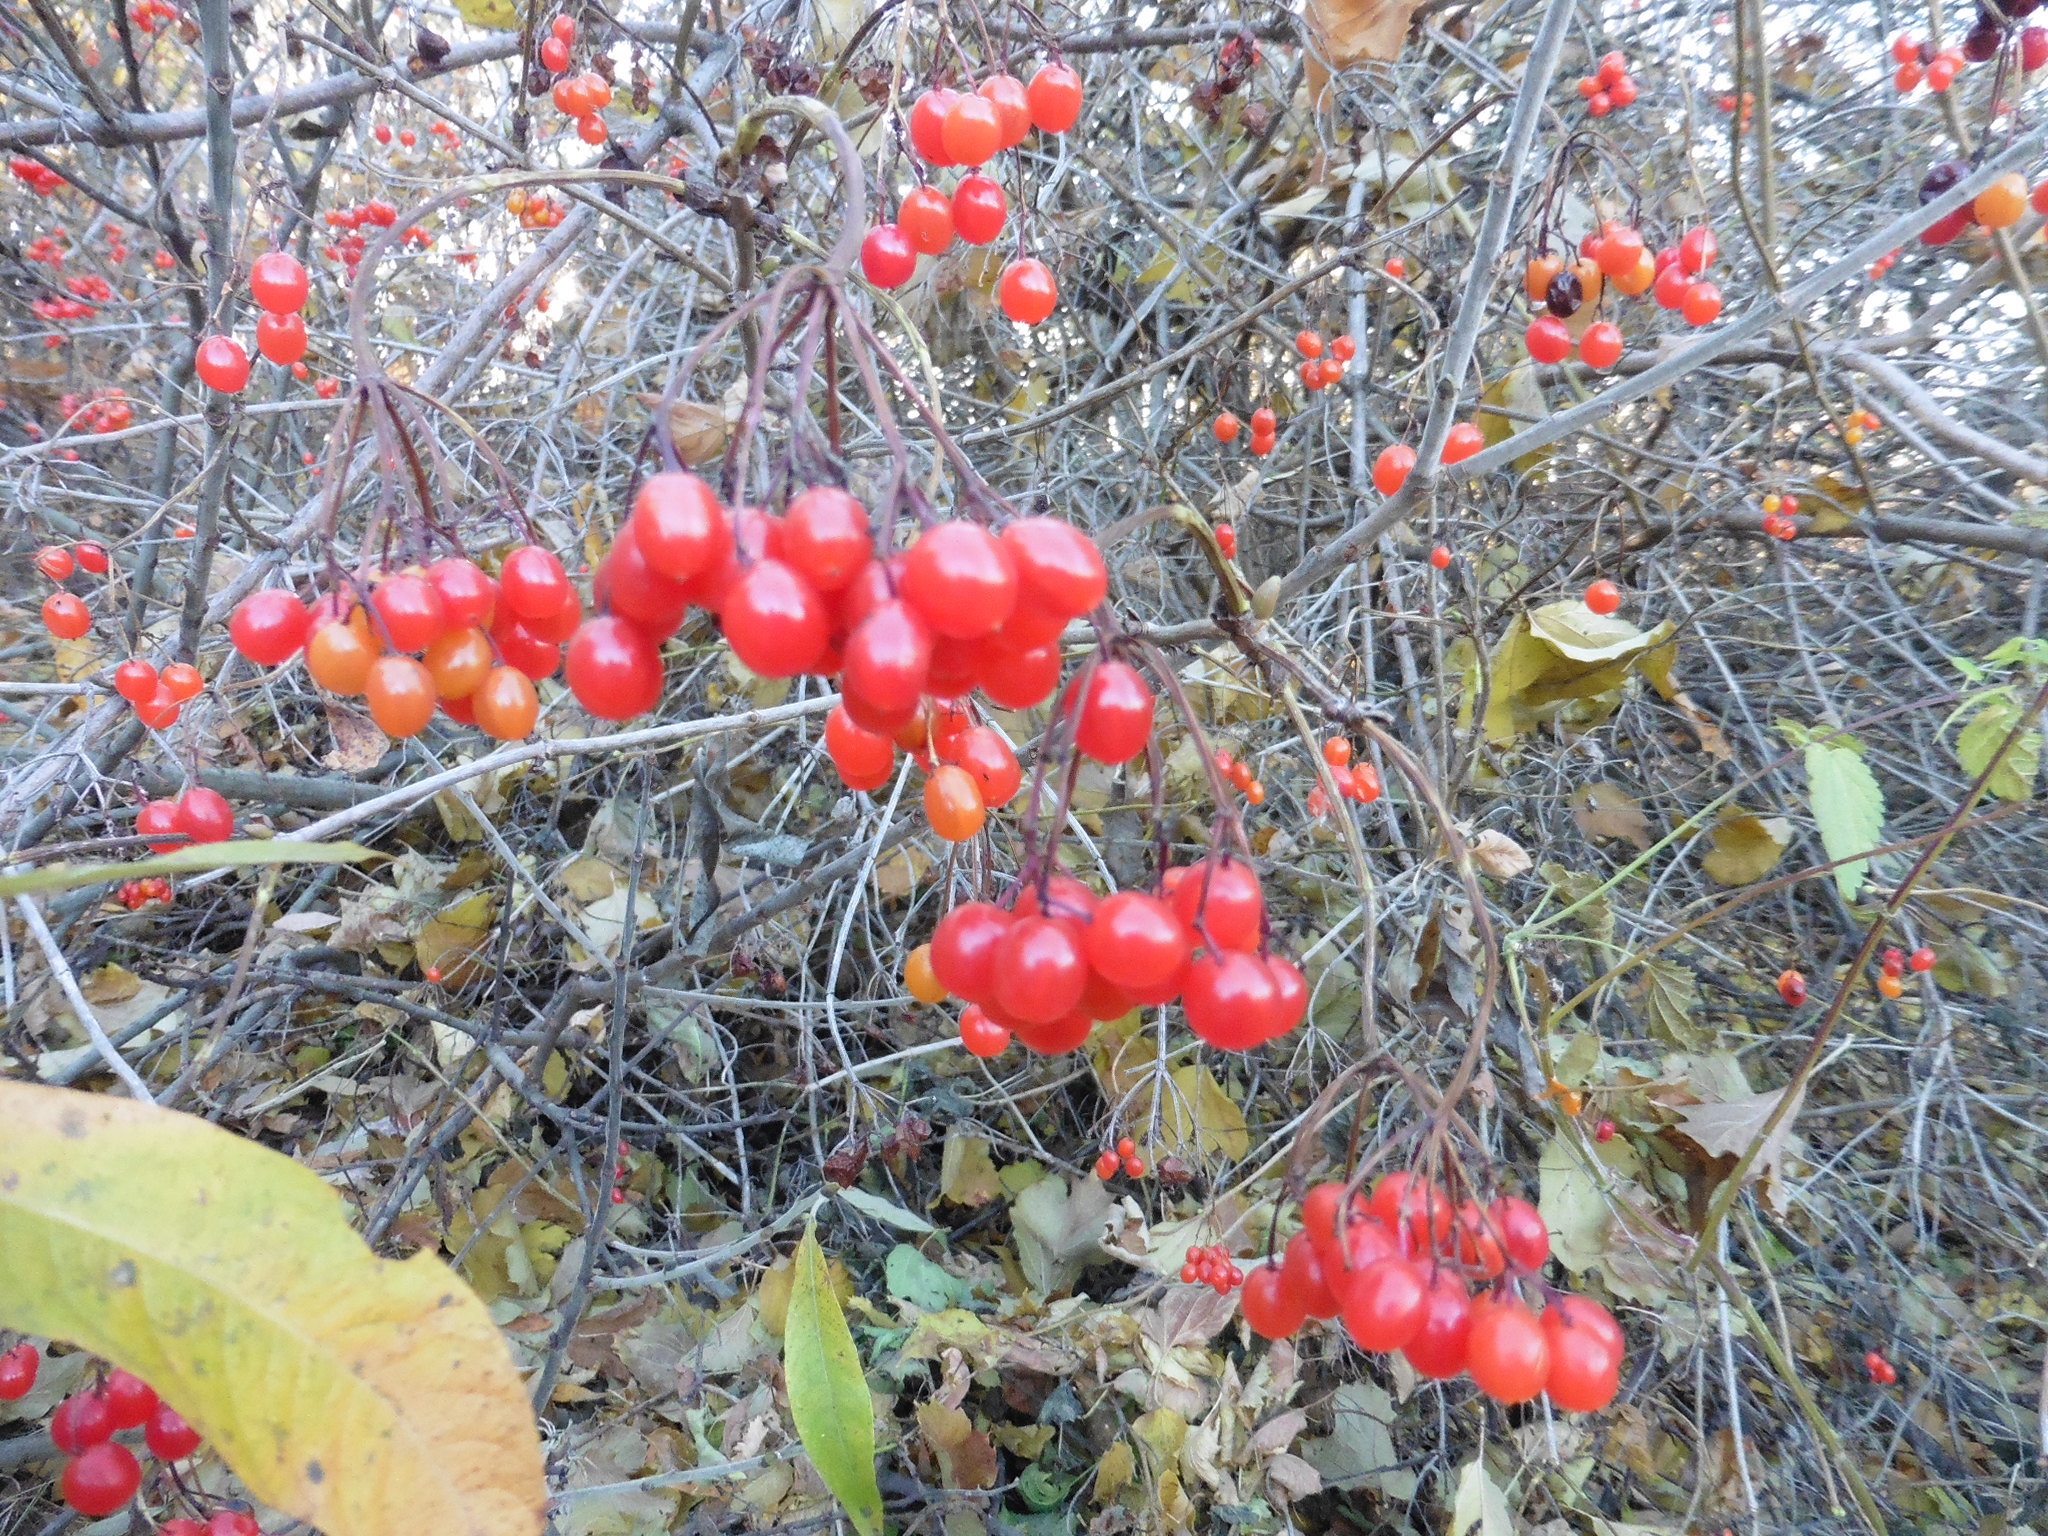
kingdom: Plantae
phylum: Tracheophyta
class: Magnoliopsida
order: Dipsacales
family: Viburnaceae
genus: Viburnum
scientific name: Viburnum opulus
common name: Guelder-rose
